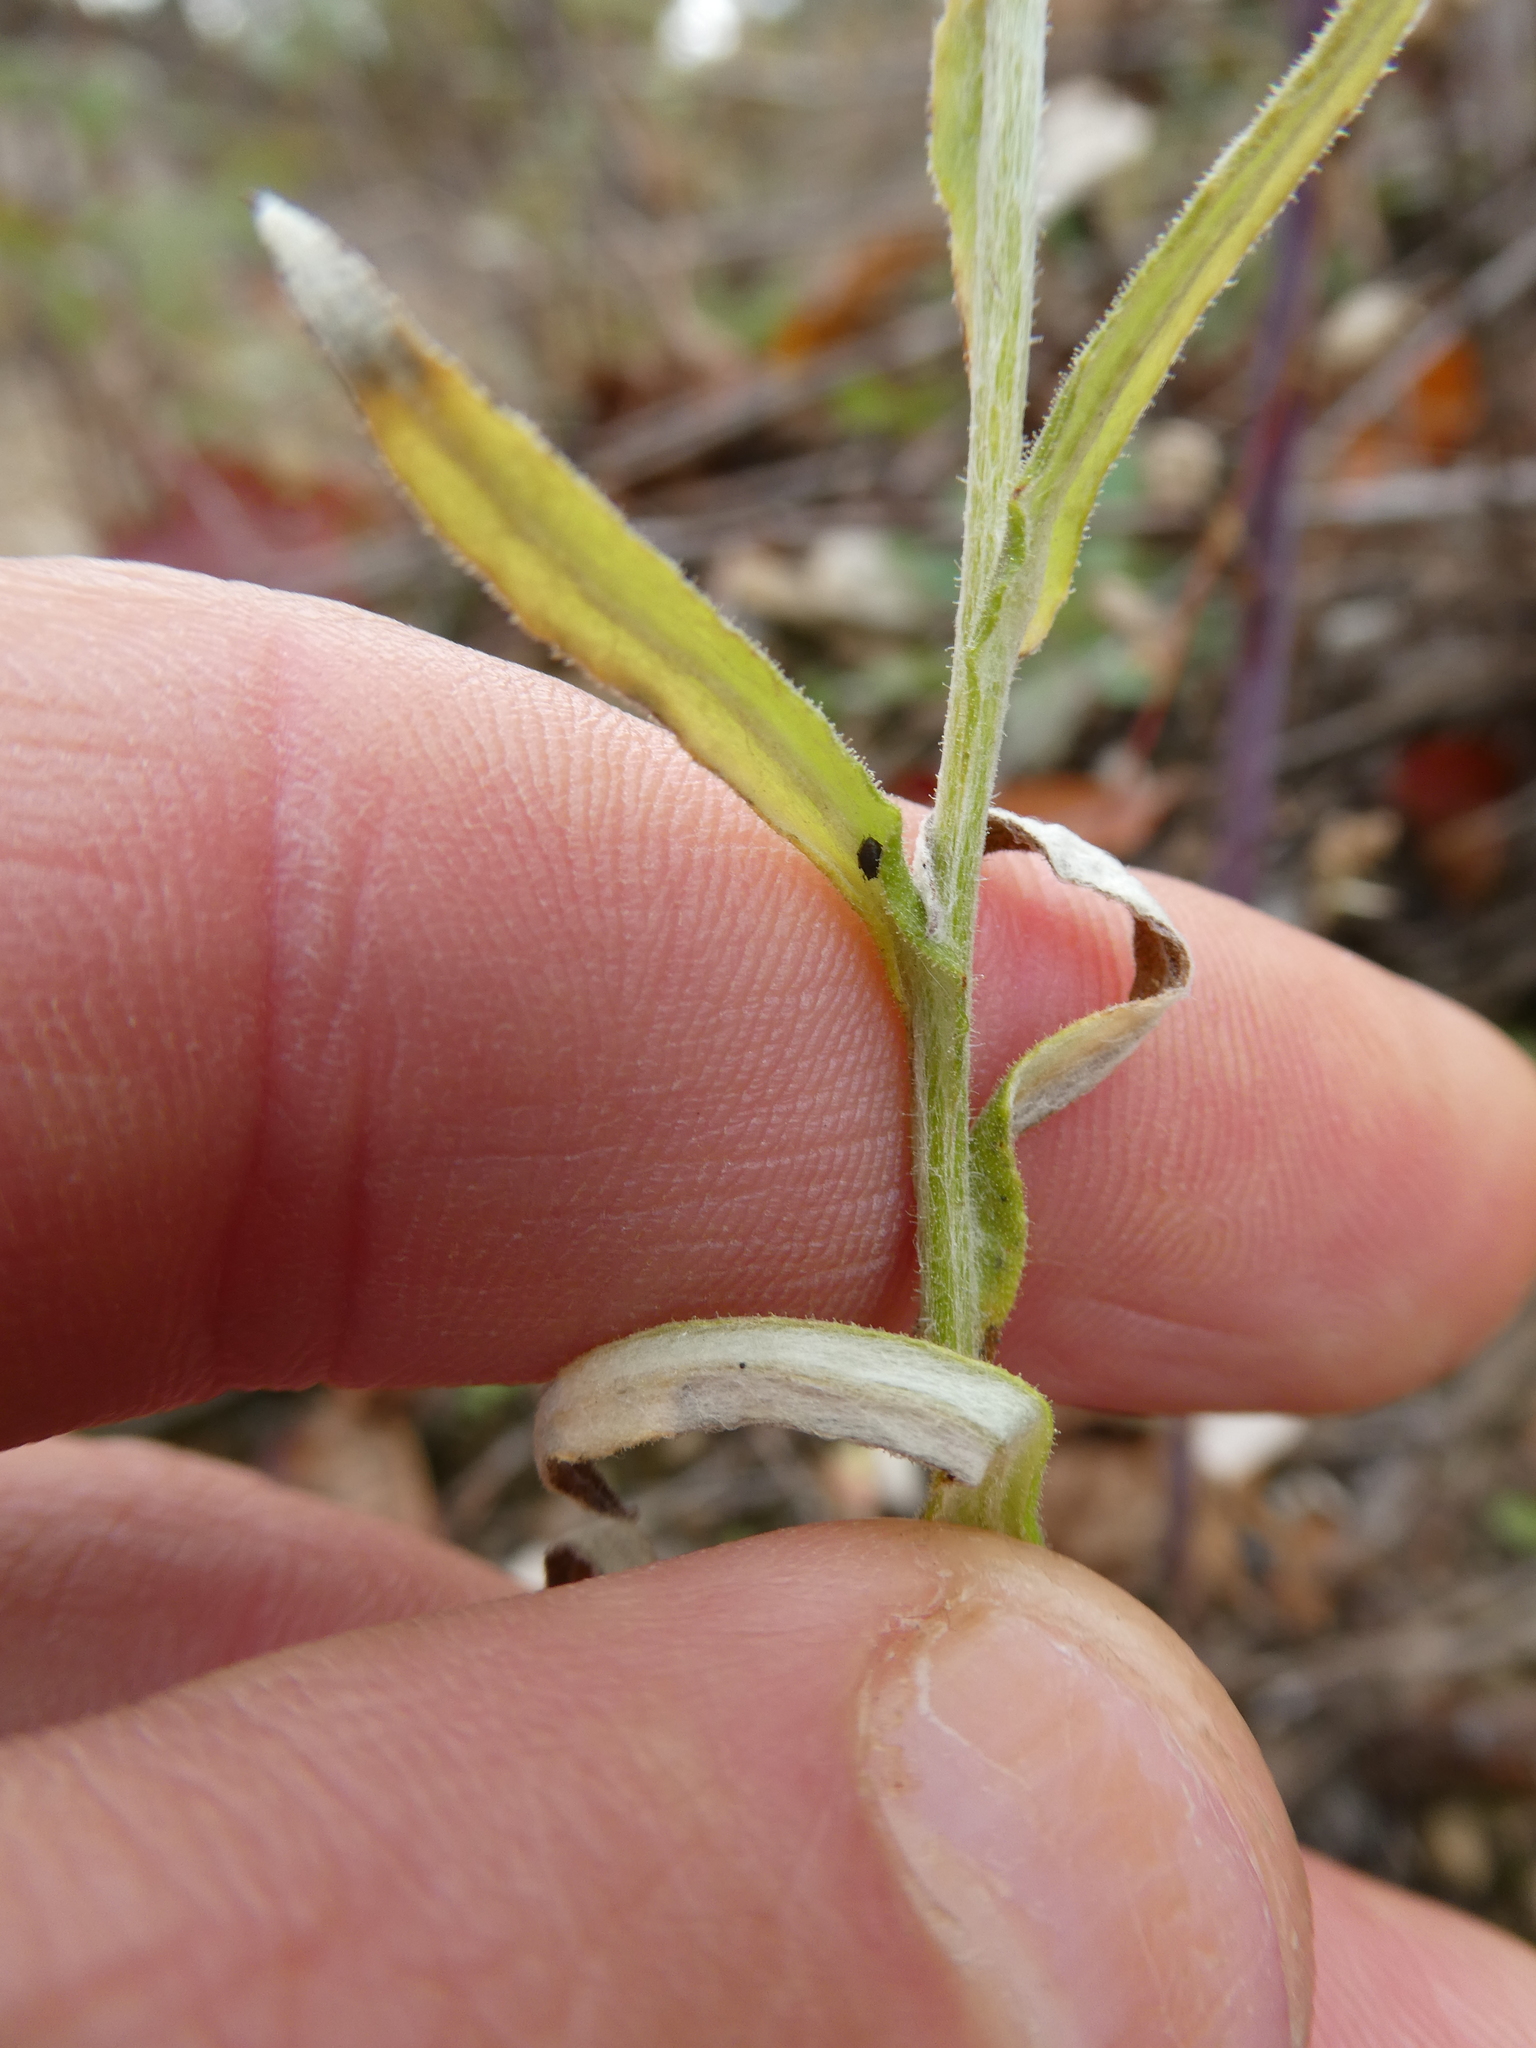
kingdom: Plantae
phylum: Tracheophyta
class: Magnoliopsida
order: Asterales
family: Asteraceae
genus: Pseudognaphalium
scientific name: Pseudognaphalium macounii
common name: Clammy cudweed
